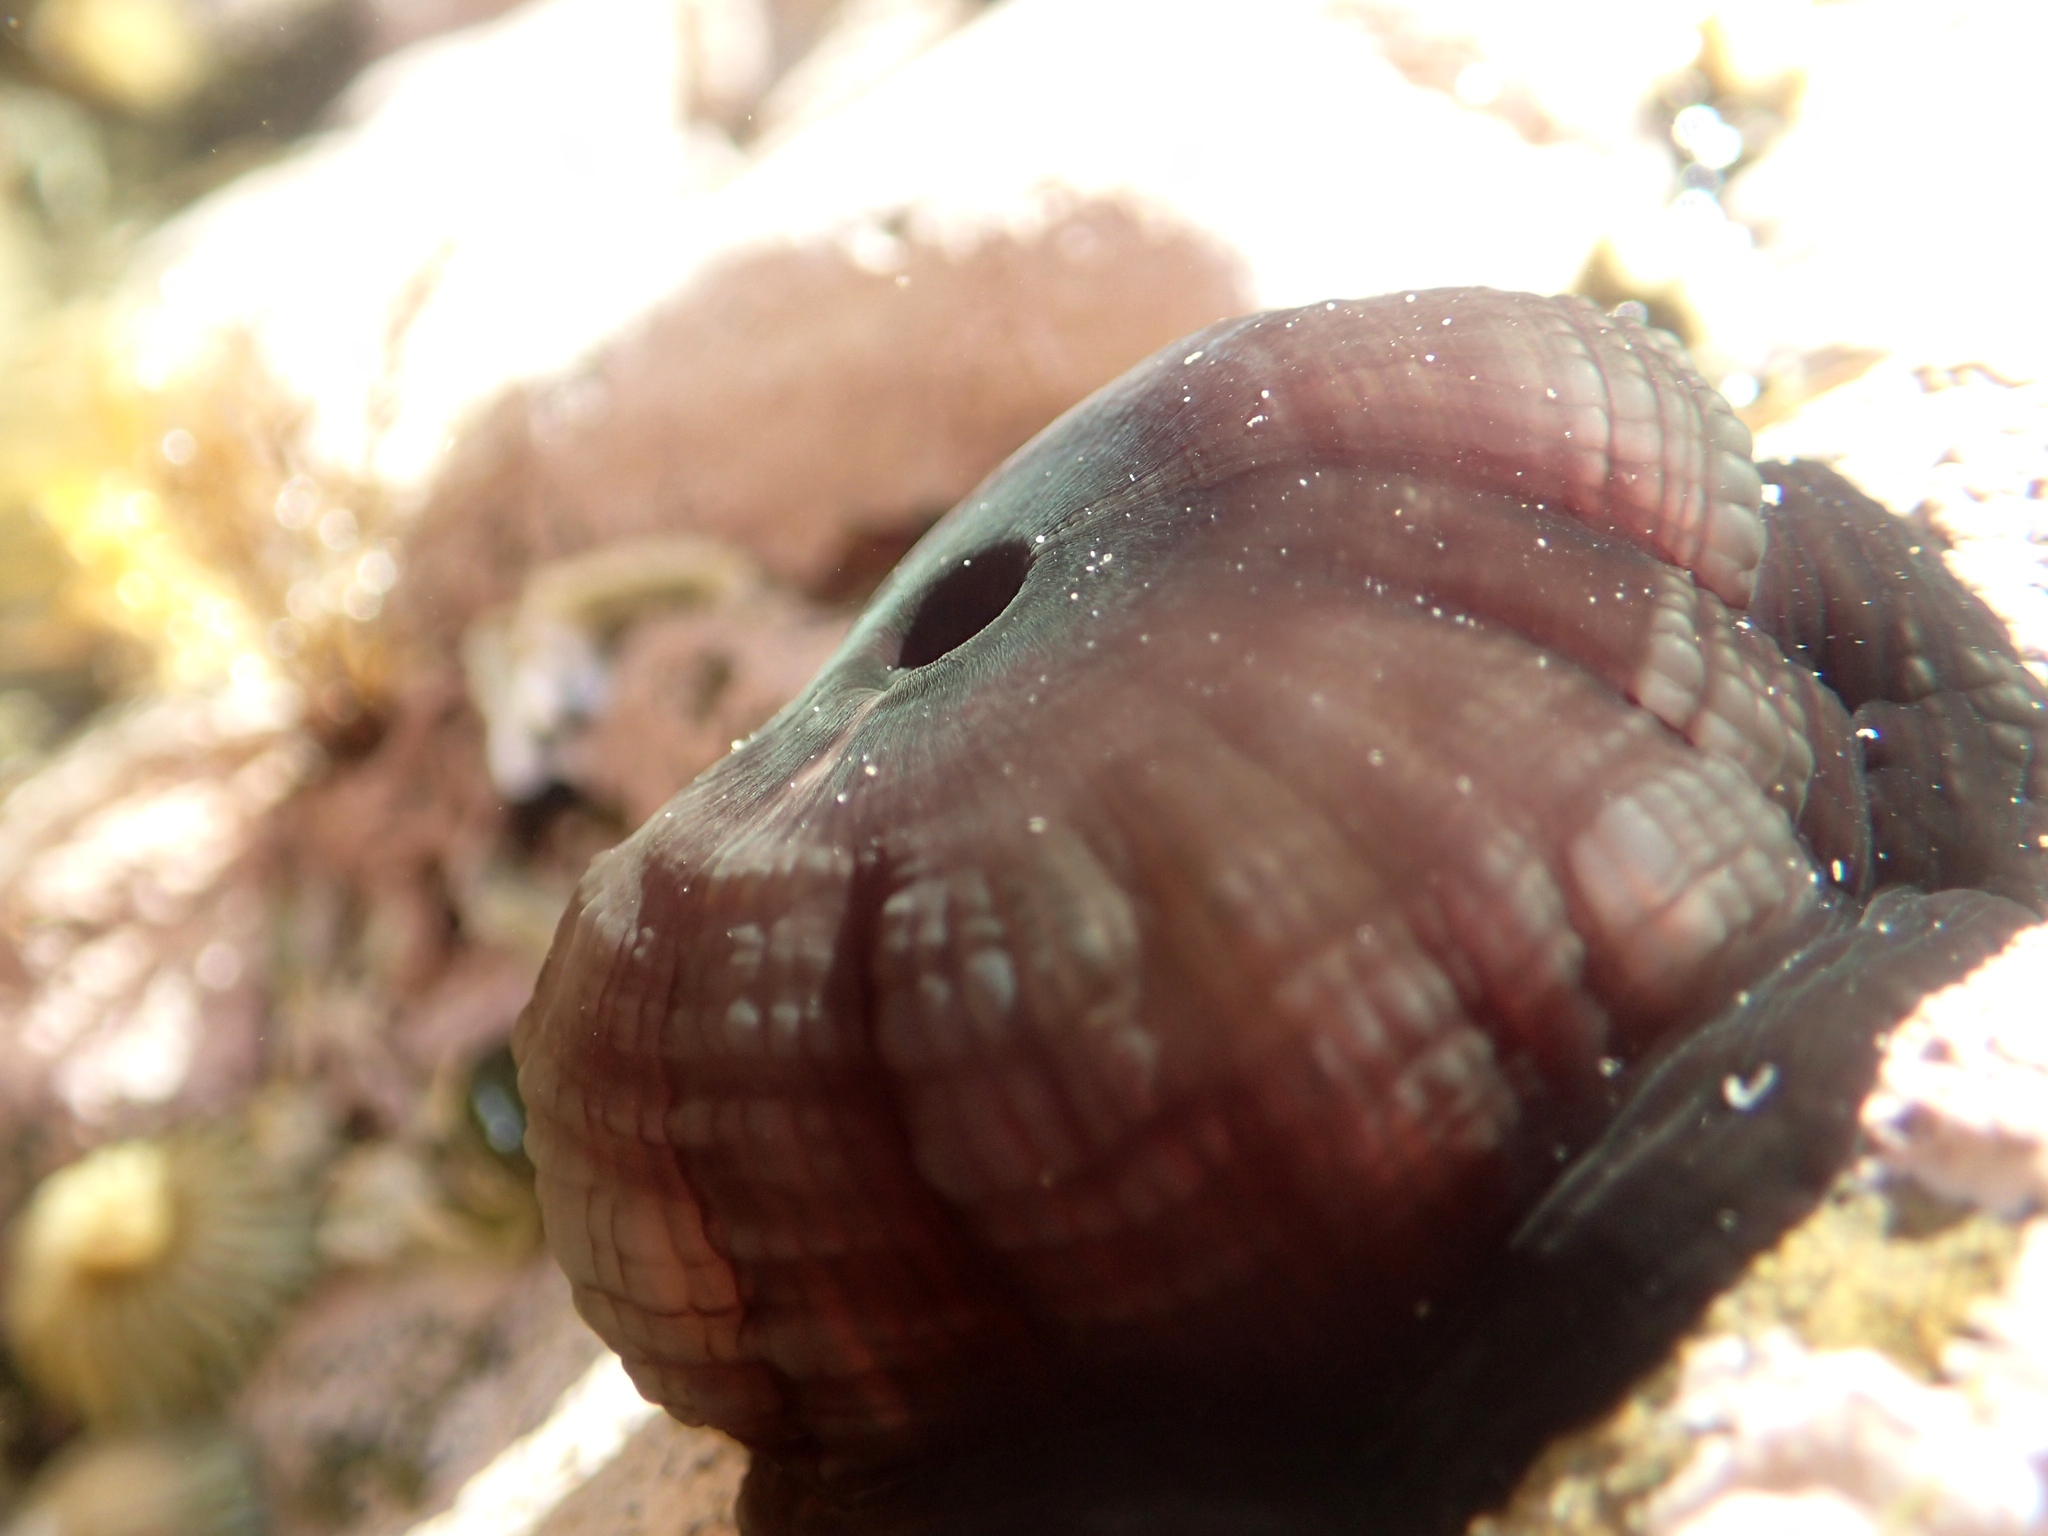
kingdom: Animalia
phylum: Cnidaria
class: Anthozoa
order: Actiniaria
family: Actiniidae
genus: Actinia
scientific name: Actinia tenebrosa
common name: Waratah anemone
